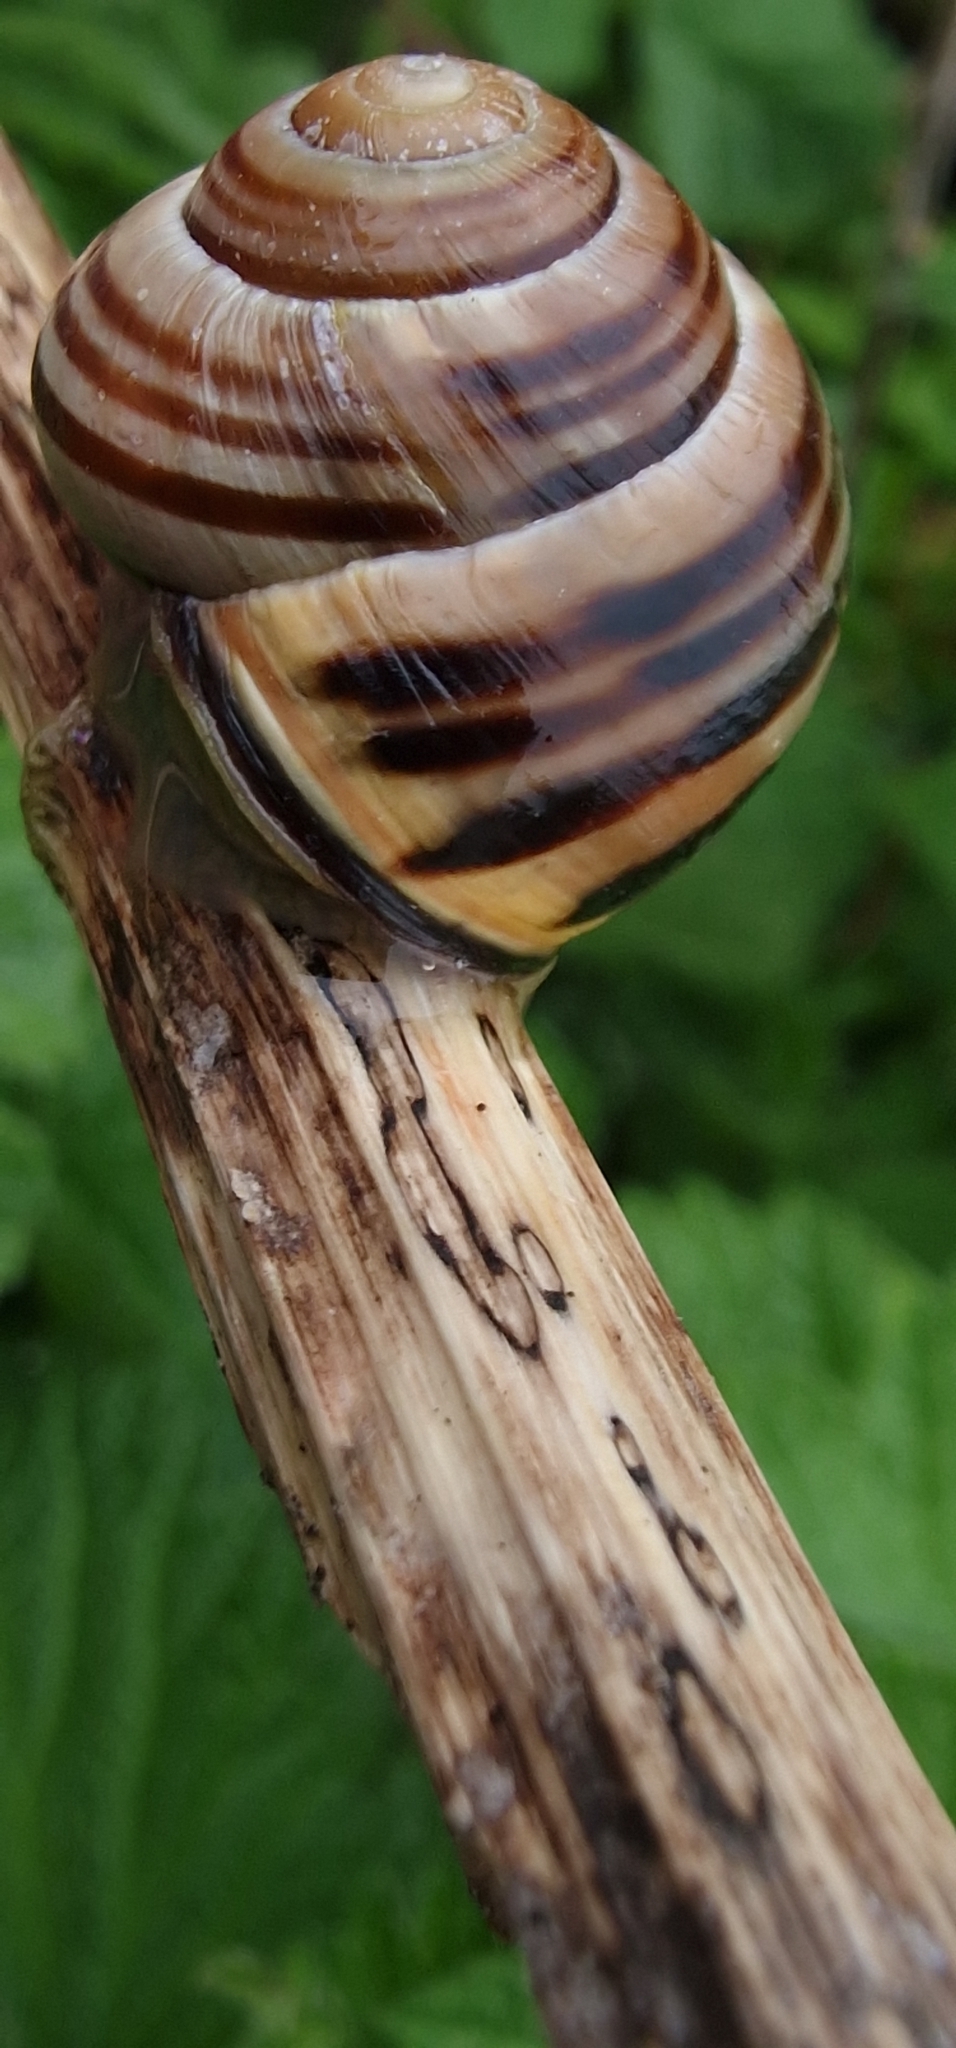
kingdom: Animalia
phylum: Mollusca
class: Gastropoda
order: Stylommatophora
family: Helicidae
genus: Cepaea
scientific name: Cepaea nemoralis
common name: Grovesnail
